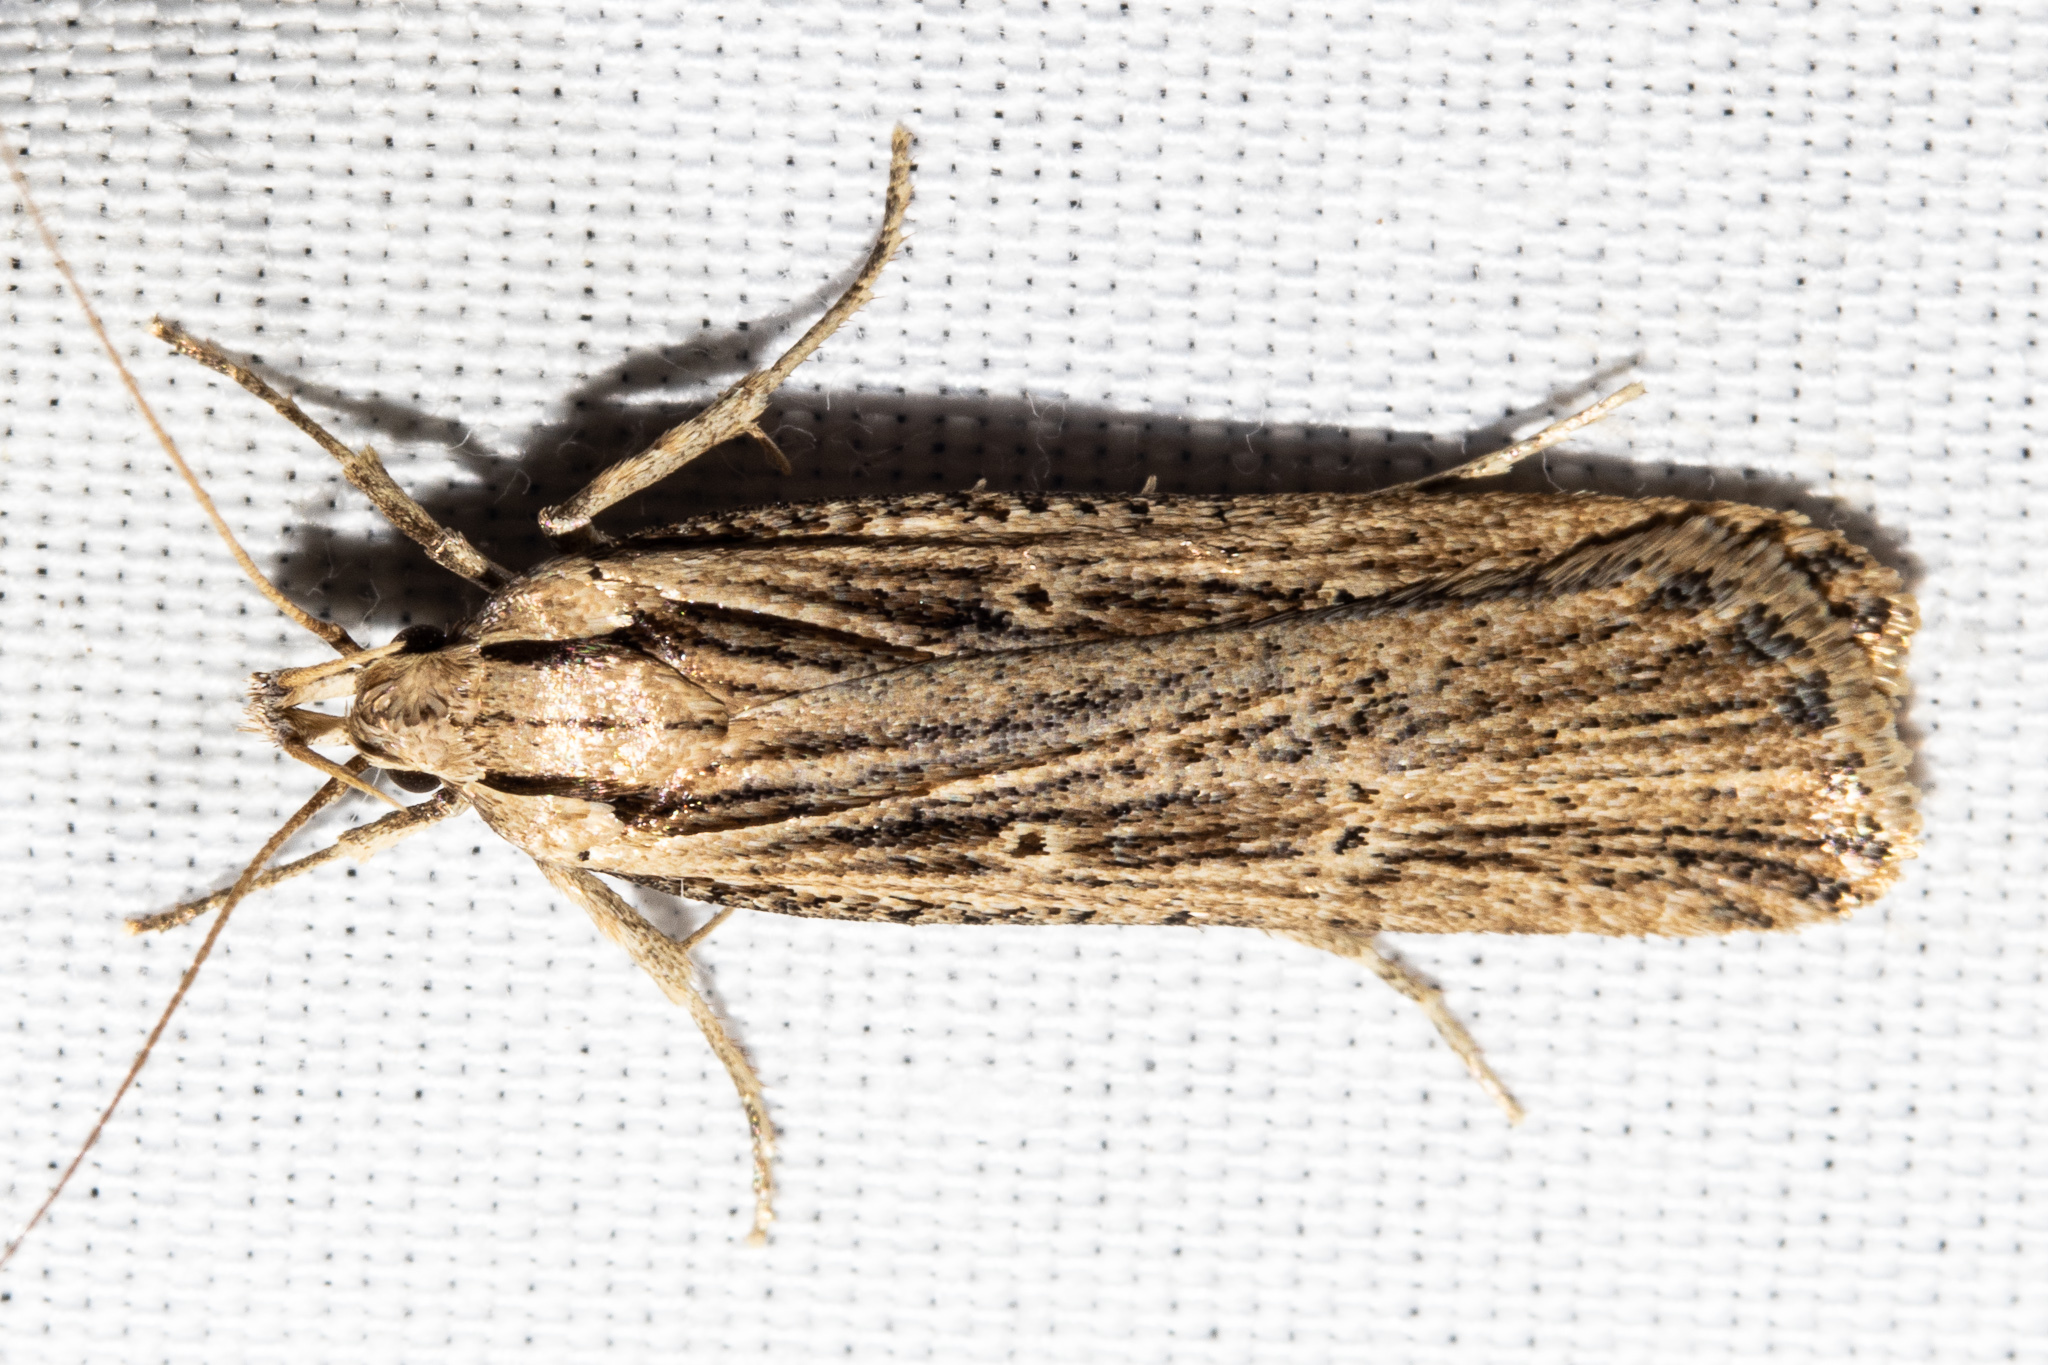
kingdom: Animalia
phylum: Arthropoda
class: Insecta
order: Lepidoptera
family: Gelechiidae
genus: Anisoplaca
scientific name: Anisoplaca ptyoptera
